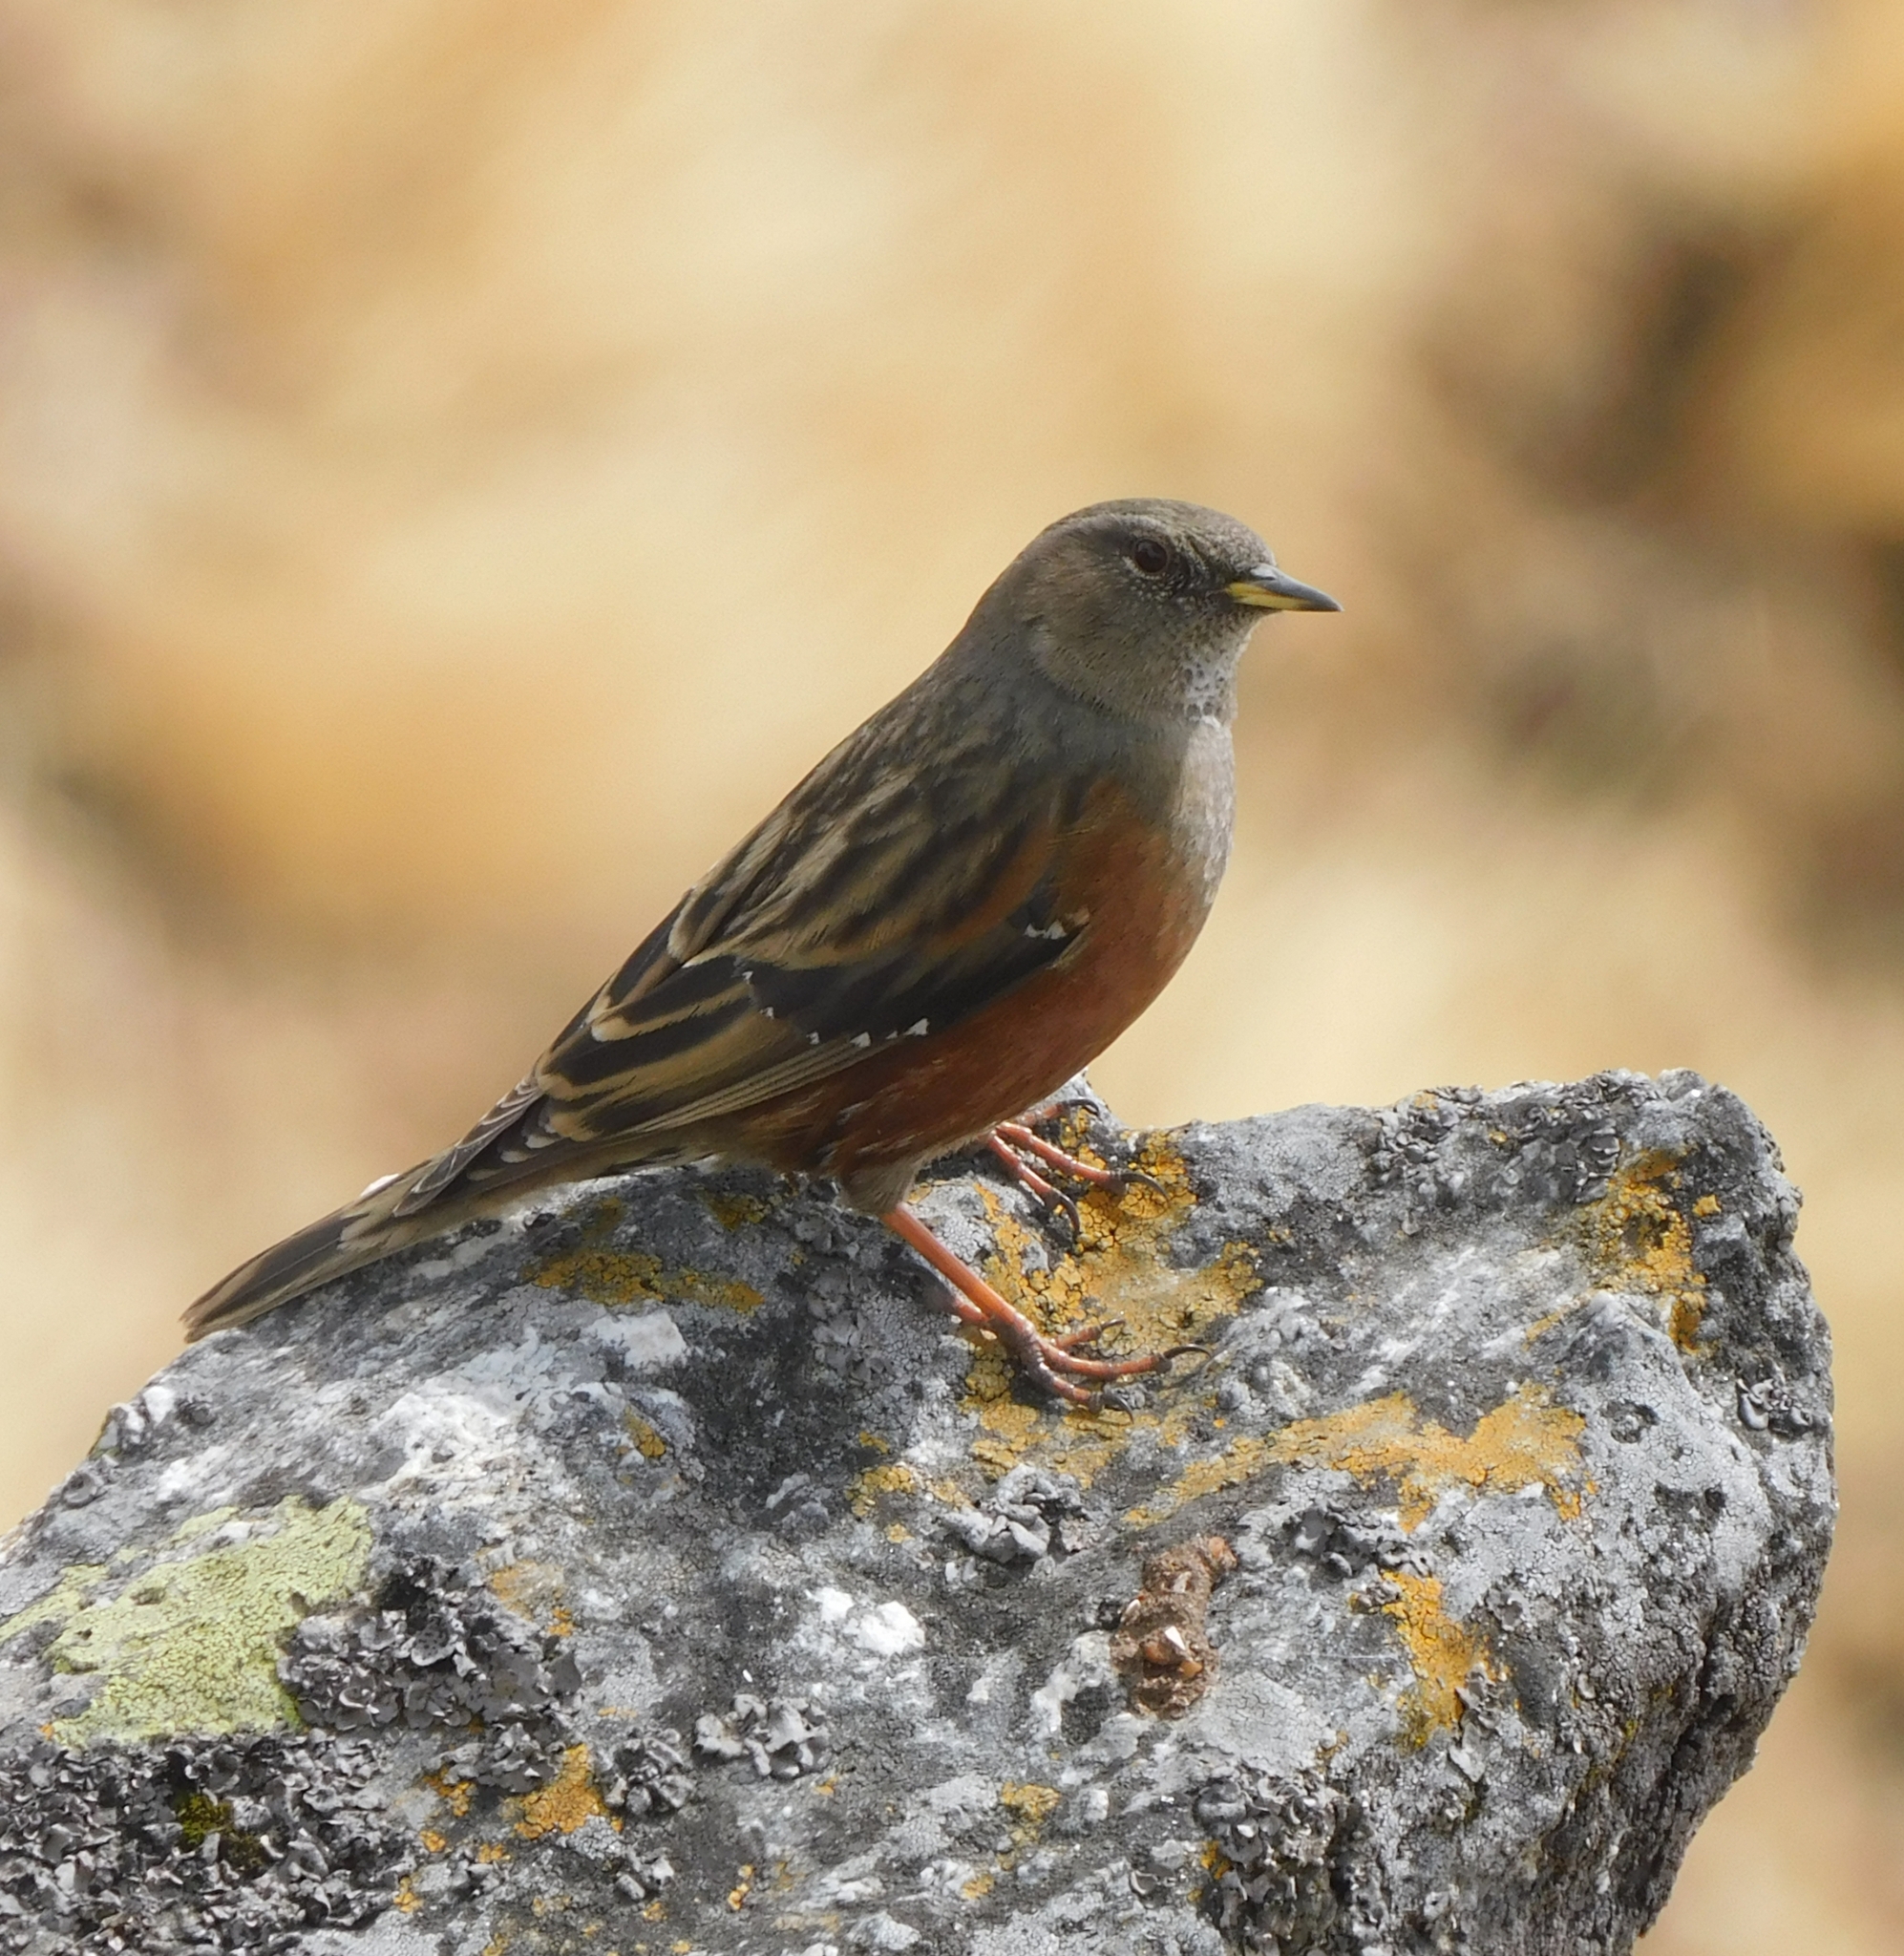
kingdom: Animalia
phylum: Chordata
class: Aves
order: Passeriformes
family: Prunellidae
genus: Prunella
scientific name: Prunella collaris
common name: Alpine accentor
